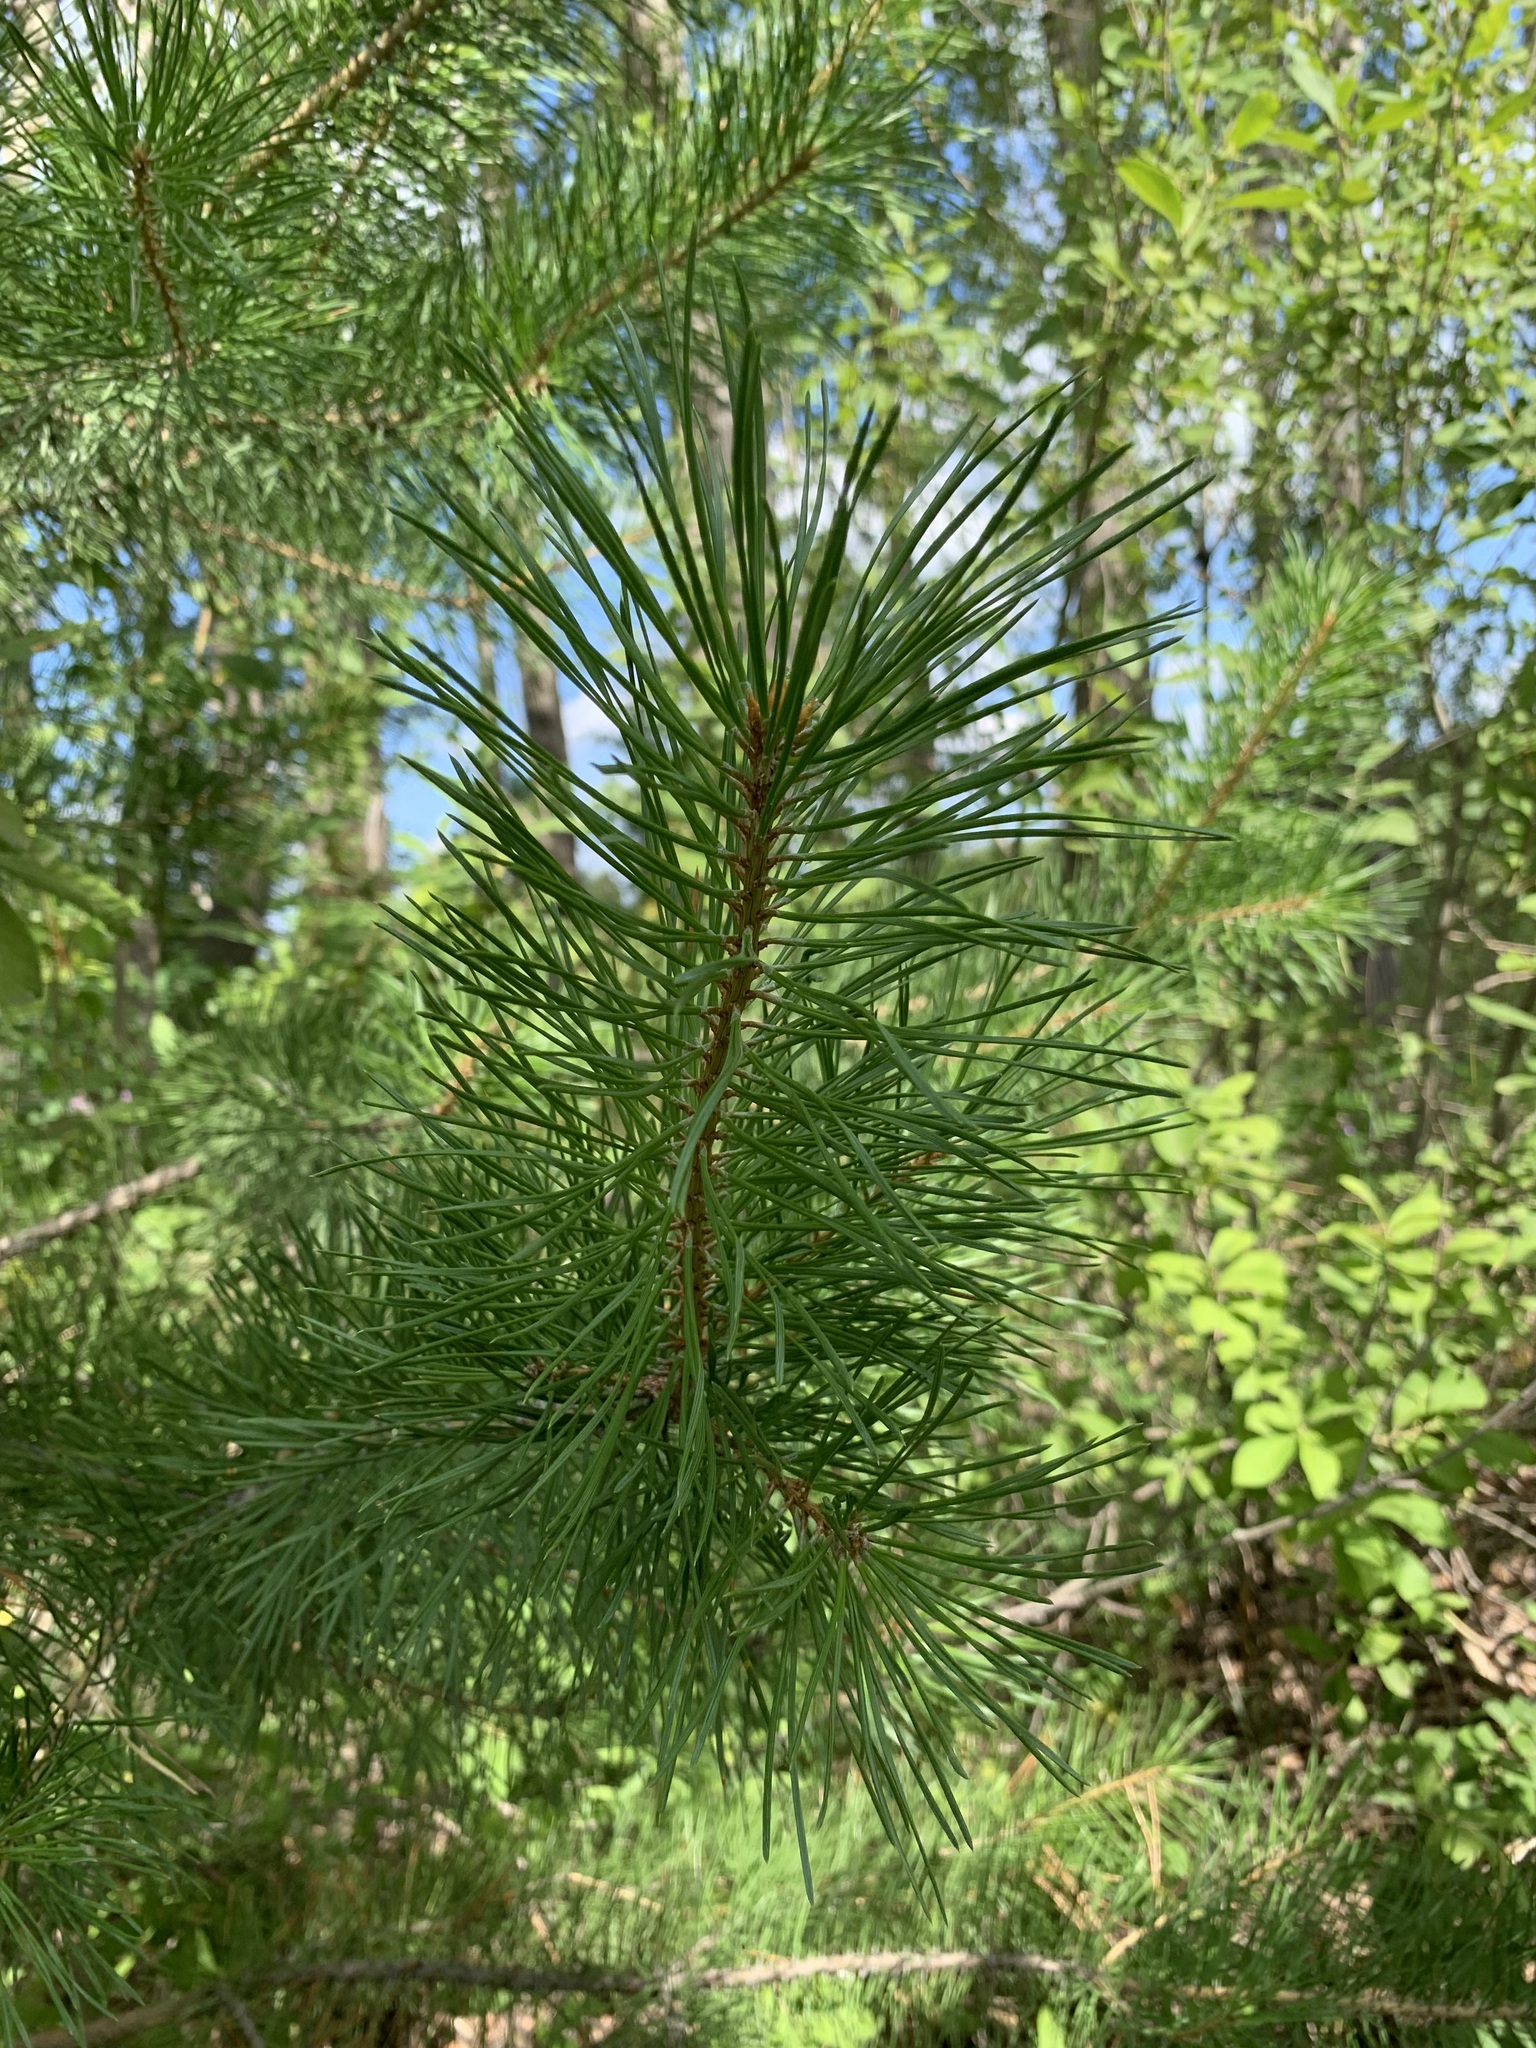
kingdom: Plantae
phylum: Tracheophyta
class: Pinopsida
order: Pinales
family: Pinaceae
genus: Pinus
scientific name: Pinus sylvestris
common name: Scots pine
